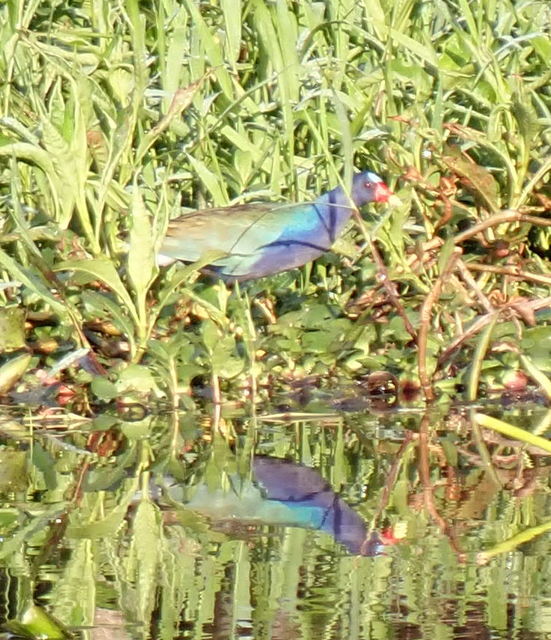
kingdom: Animalia
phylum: Chordata
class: Aves
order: Gruiformes
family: Rallidae
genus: Porphyrio
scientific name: Porphyrio martinica
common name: Purple gallinule
